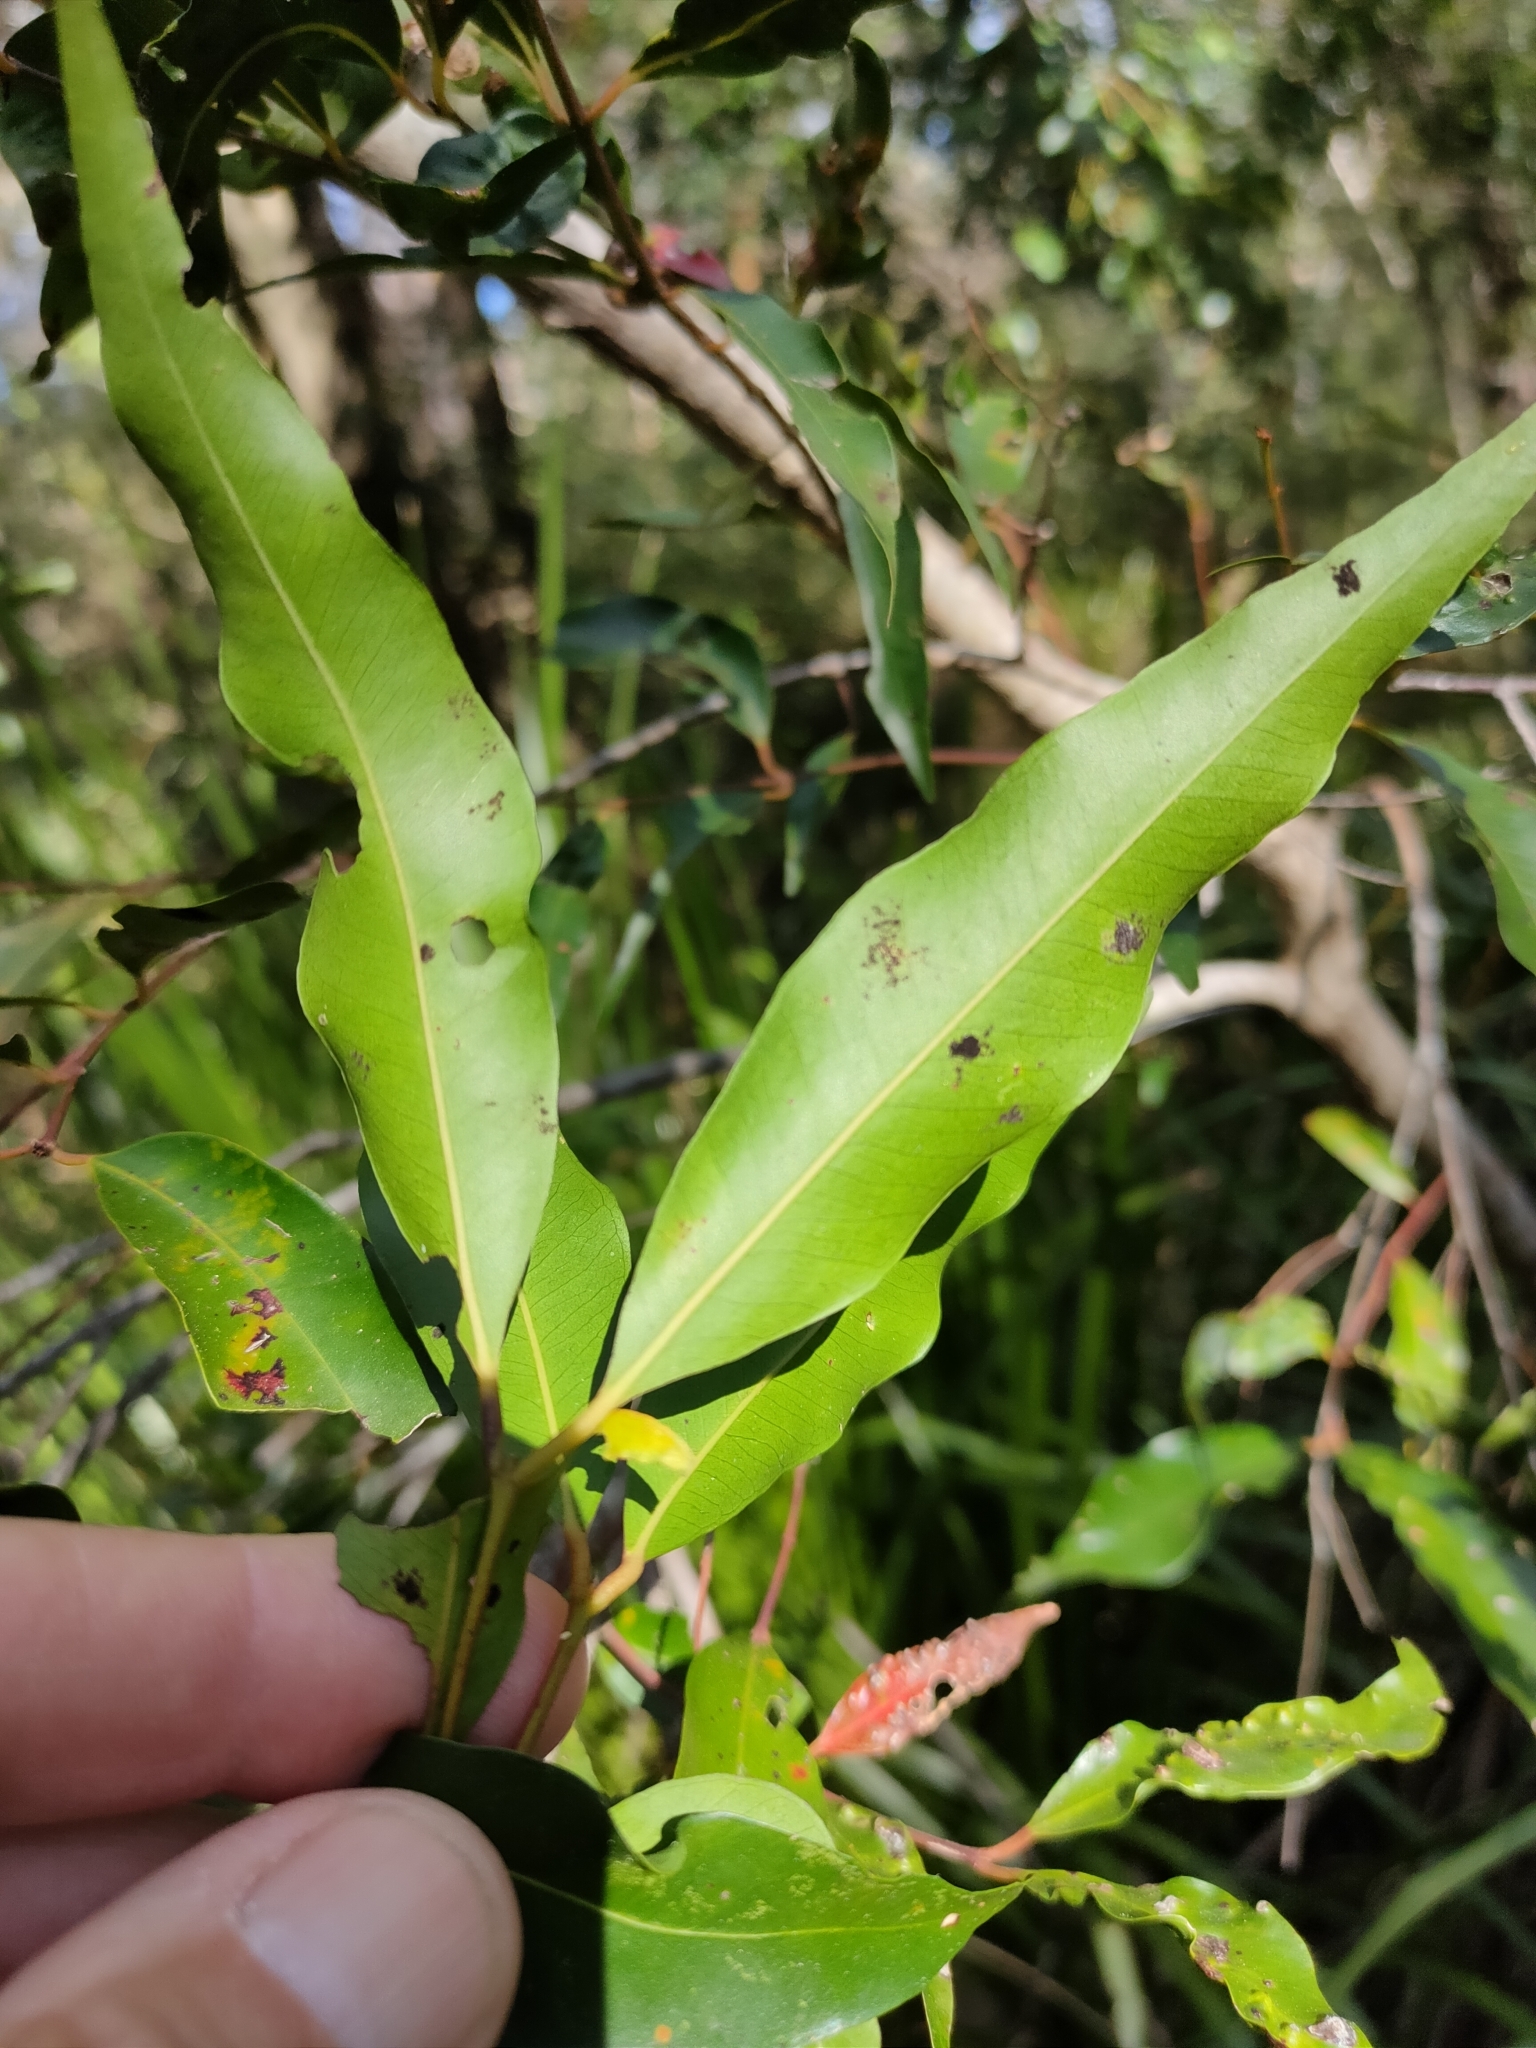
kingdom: Plantae
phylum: Tracheophyta
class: Magnoliopsida
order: Myrtales
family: Myrtaceae
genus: Syzygium
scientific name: Syzygium floribundum
